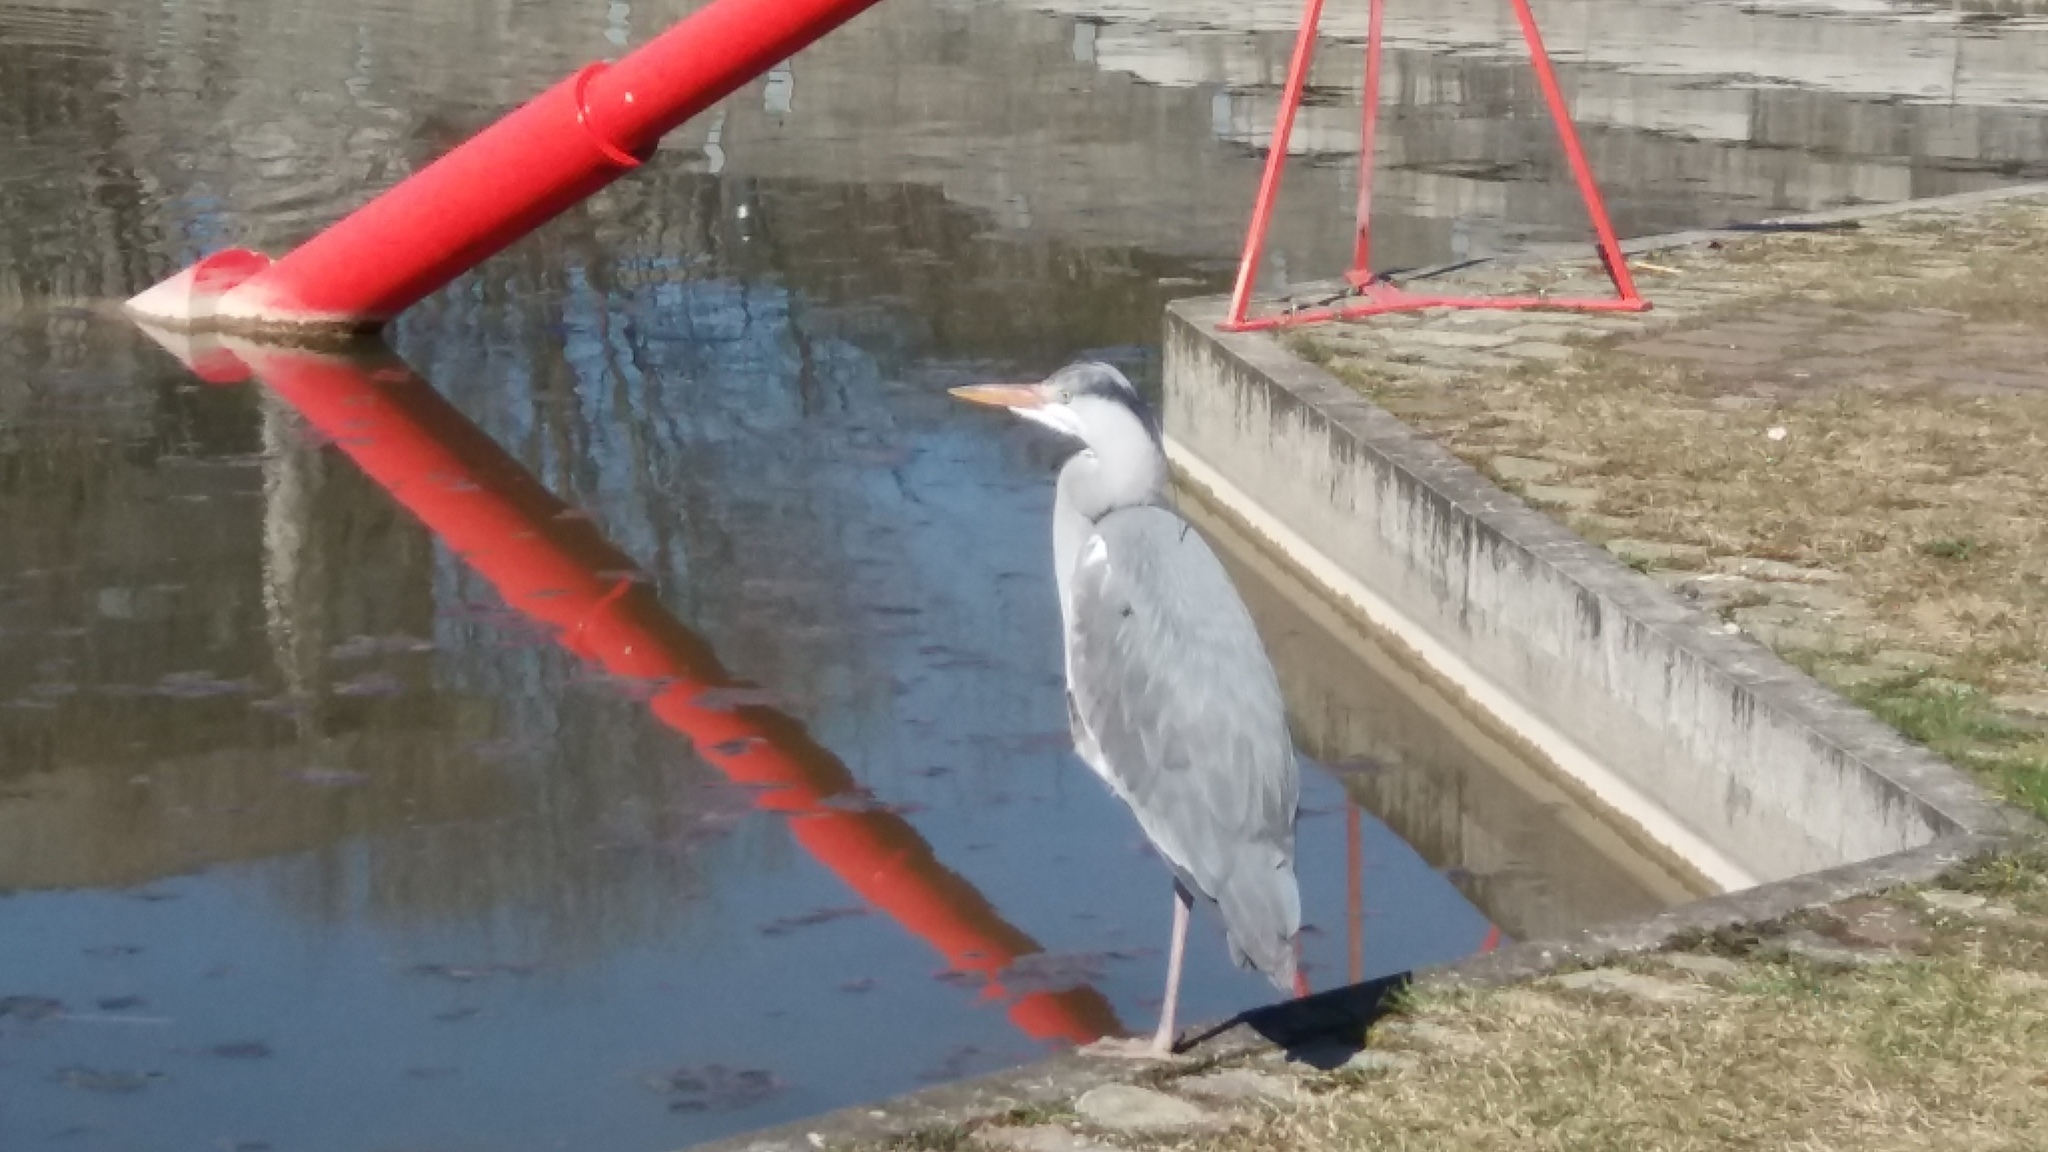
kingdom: Animalia
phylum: Chordata
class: Aves
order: Pelecaniformes
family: Ardeidae
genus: Ardea
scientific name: Ardea cinerea
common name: Grey heron
